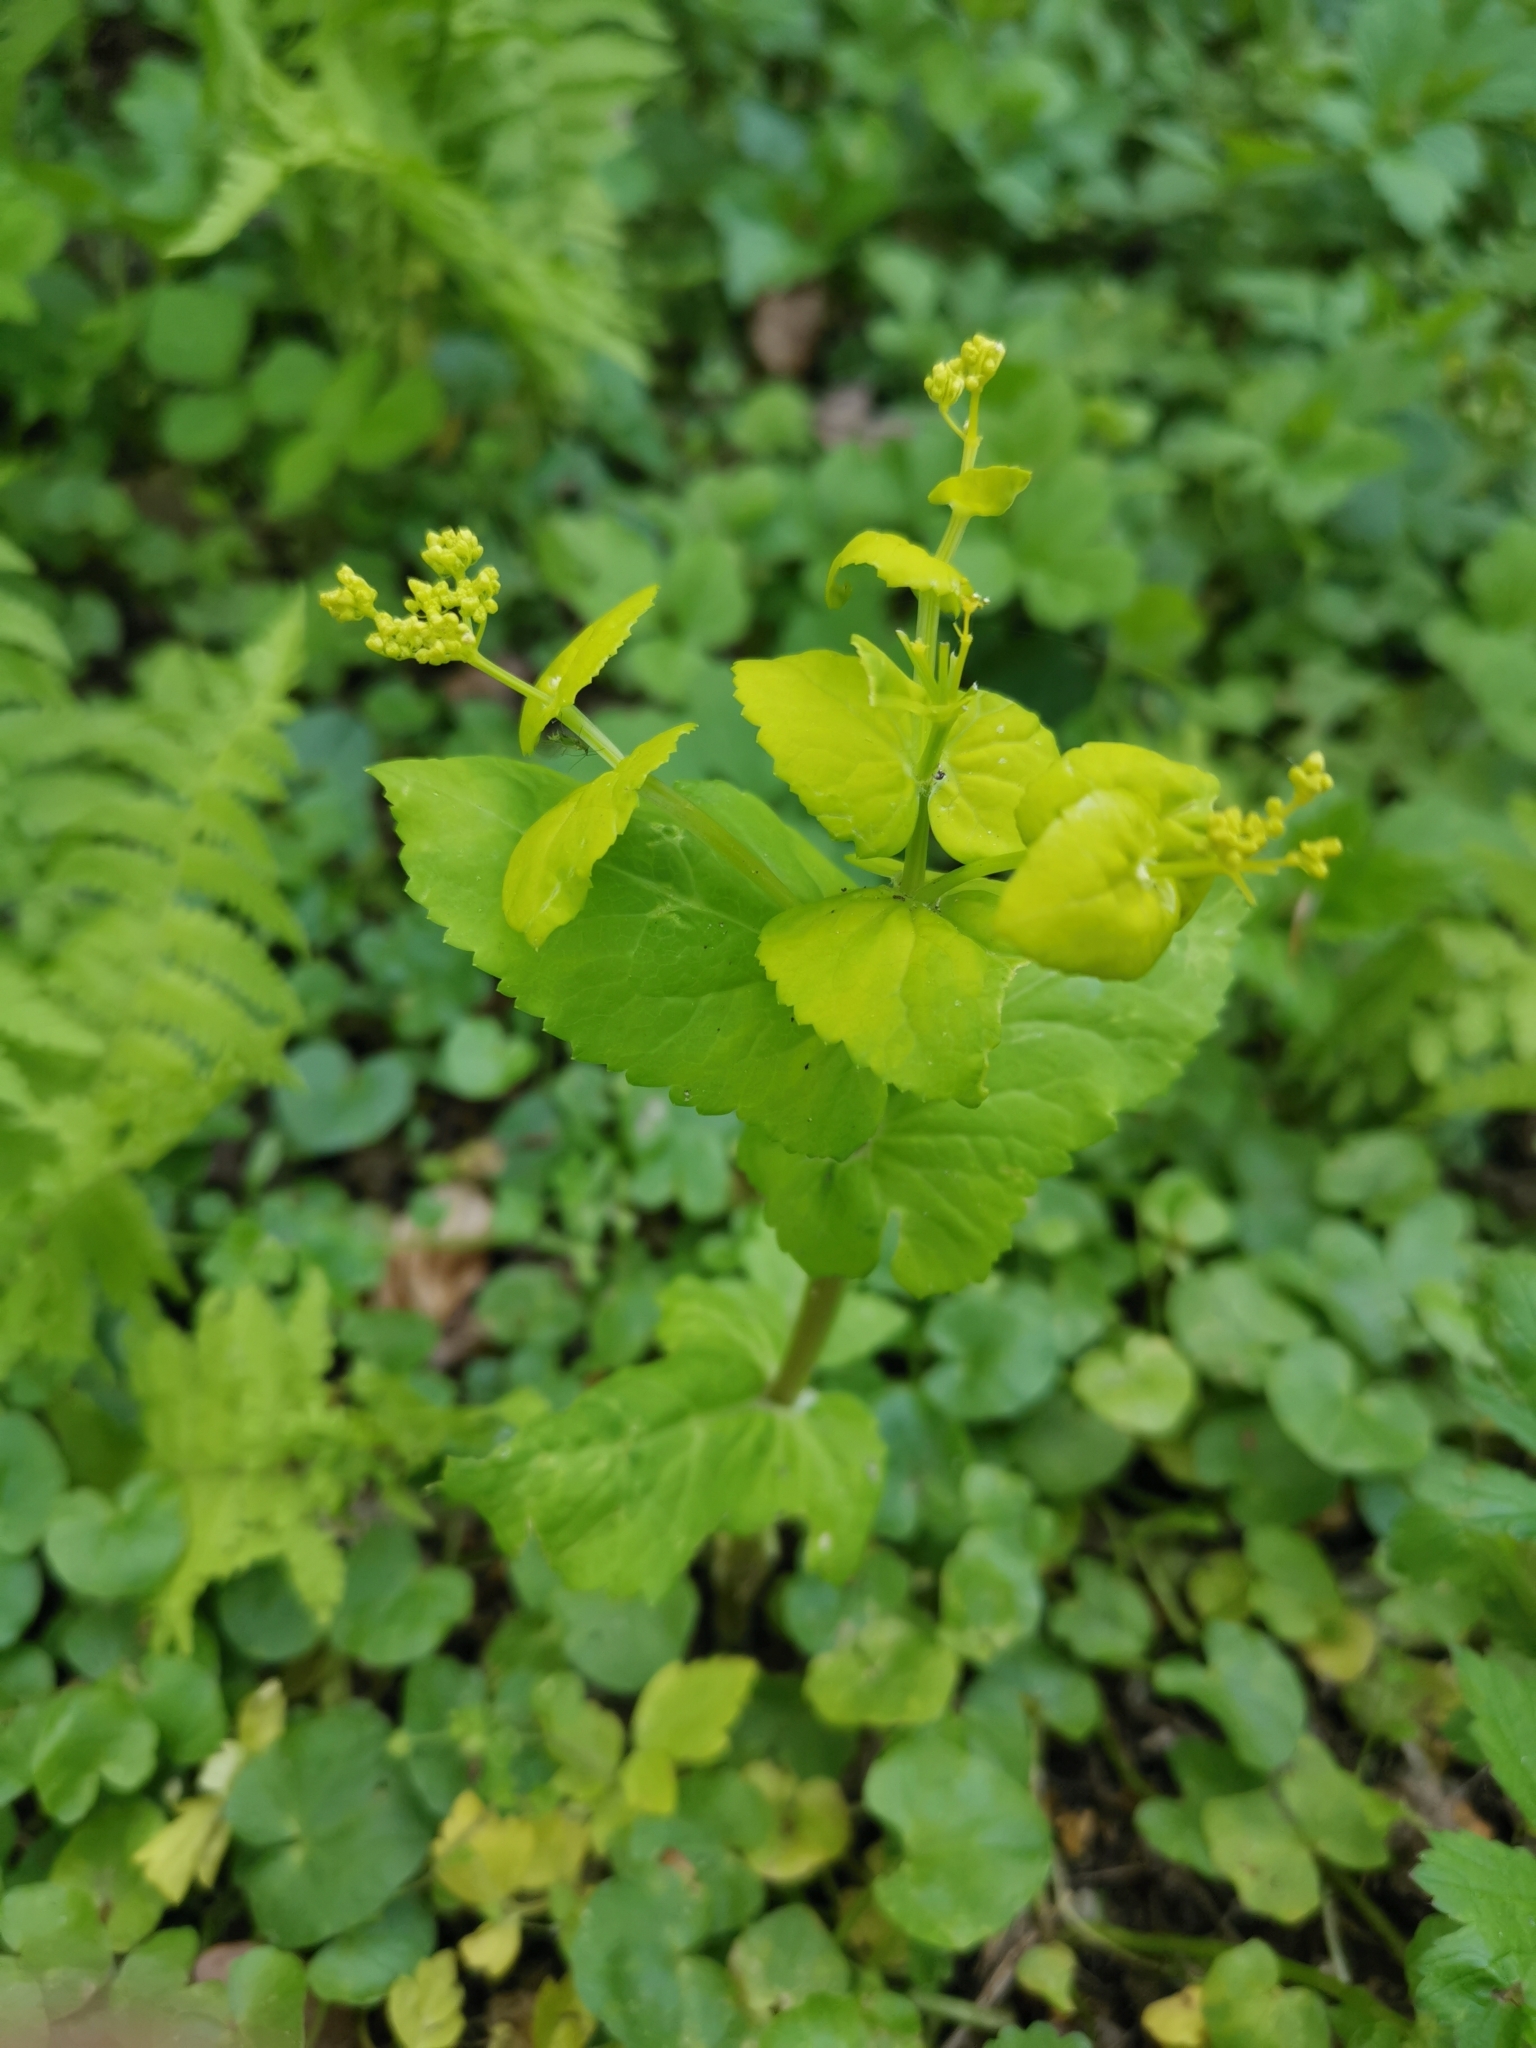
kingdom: Plantae
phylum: Tracheophyta
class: Magnoliopsida
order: Apiales
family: Apiaceae
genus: Smyrnium
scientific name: Smyrnium perfoliatum
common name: Perfoliate alexanders
